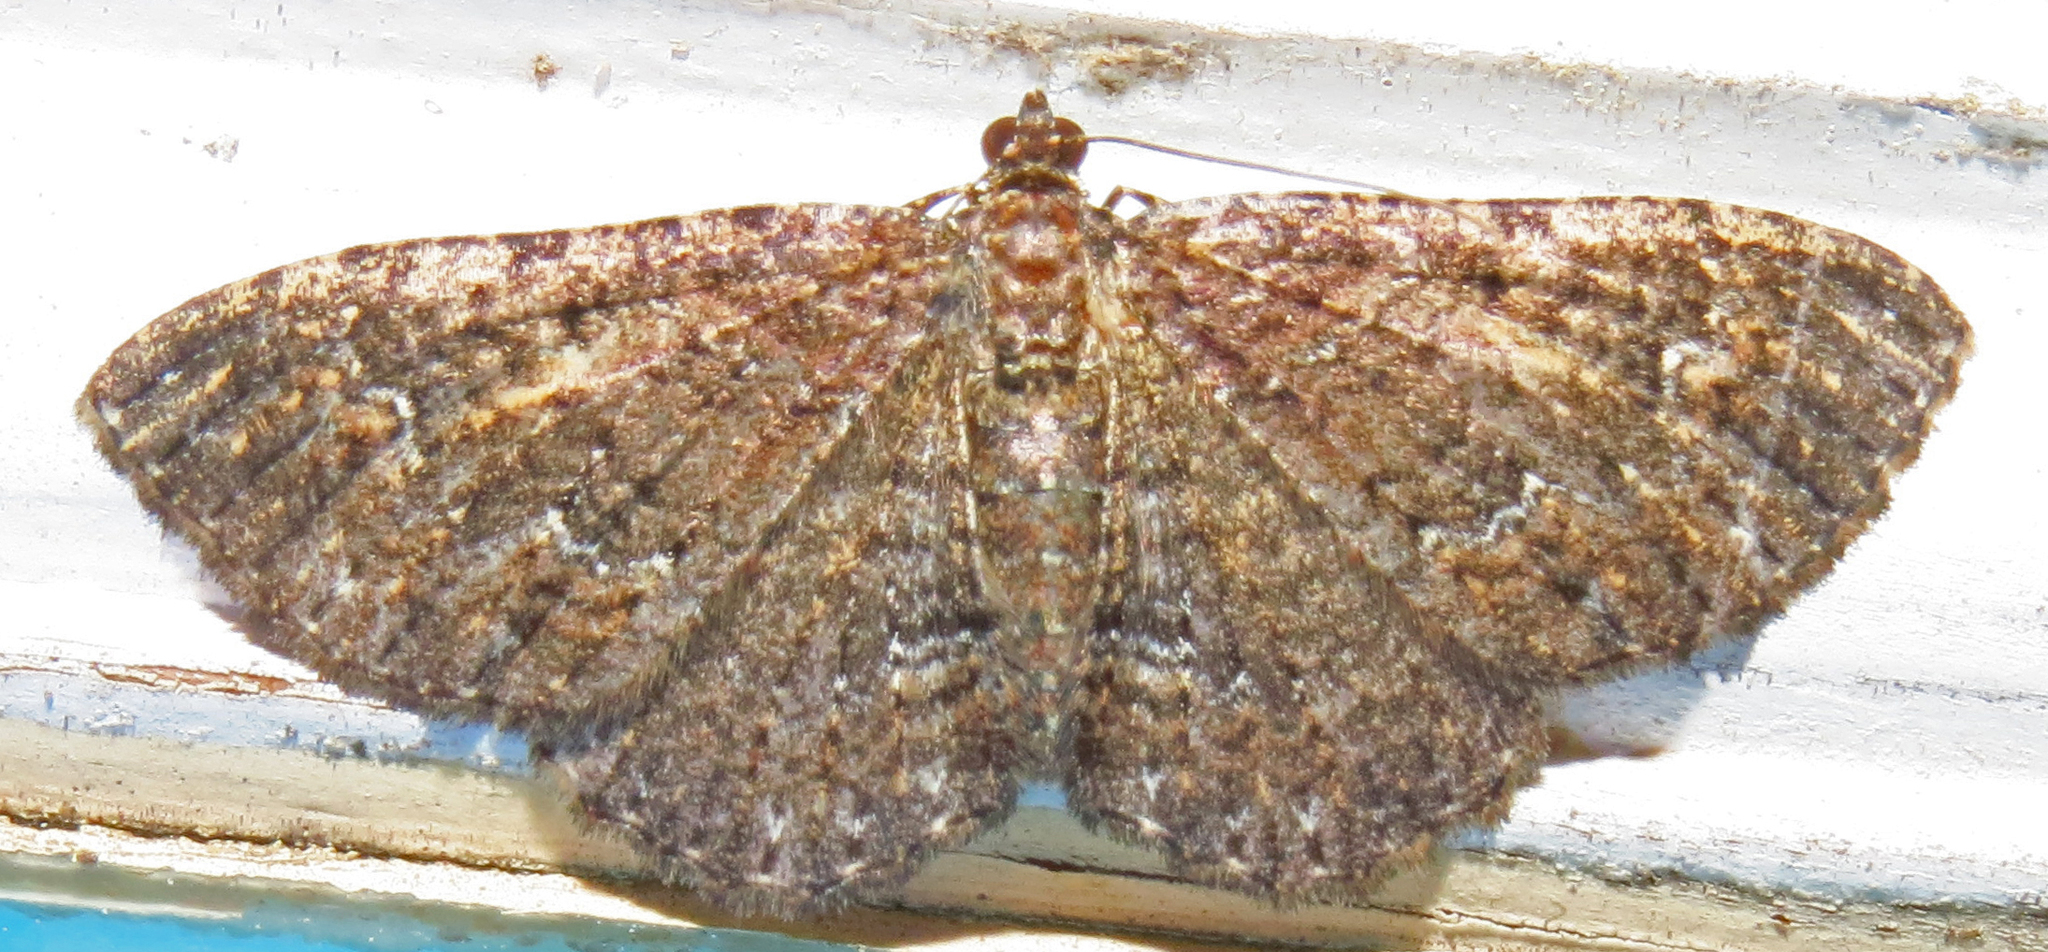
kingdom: Animalia
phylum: Arthropoda
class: Insecta
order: Lepidoptera
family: Geometridae
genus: Disclisioprocta
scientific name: Disclisioprocta stellata
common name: Somber carpet
